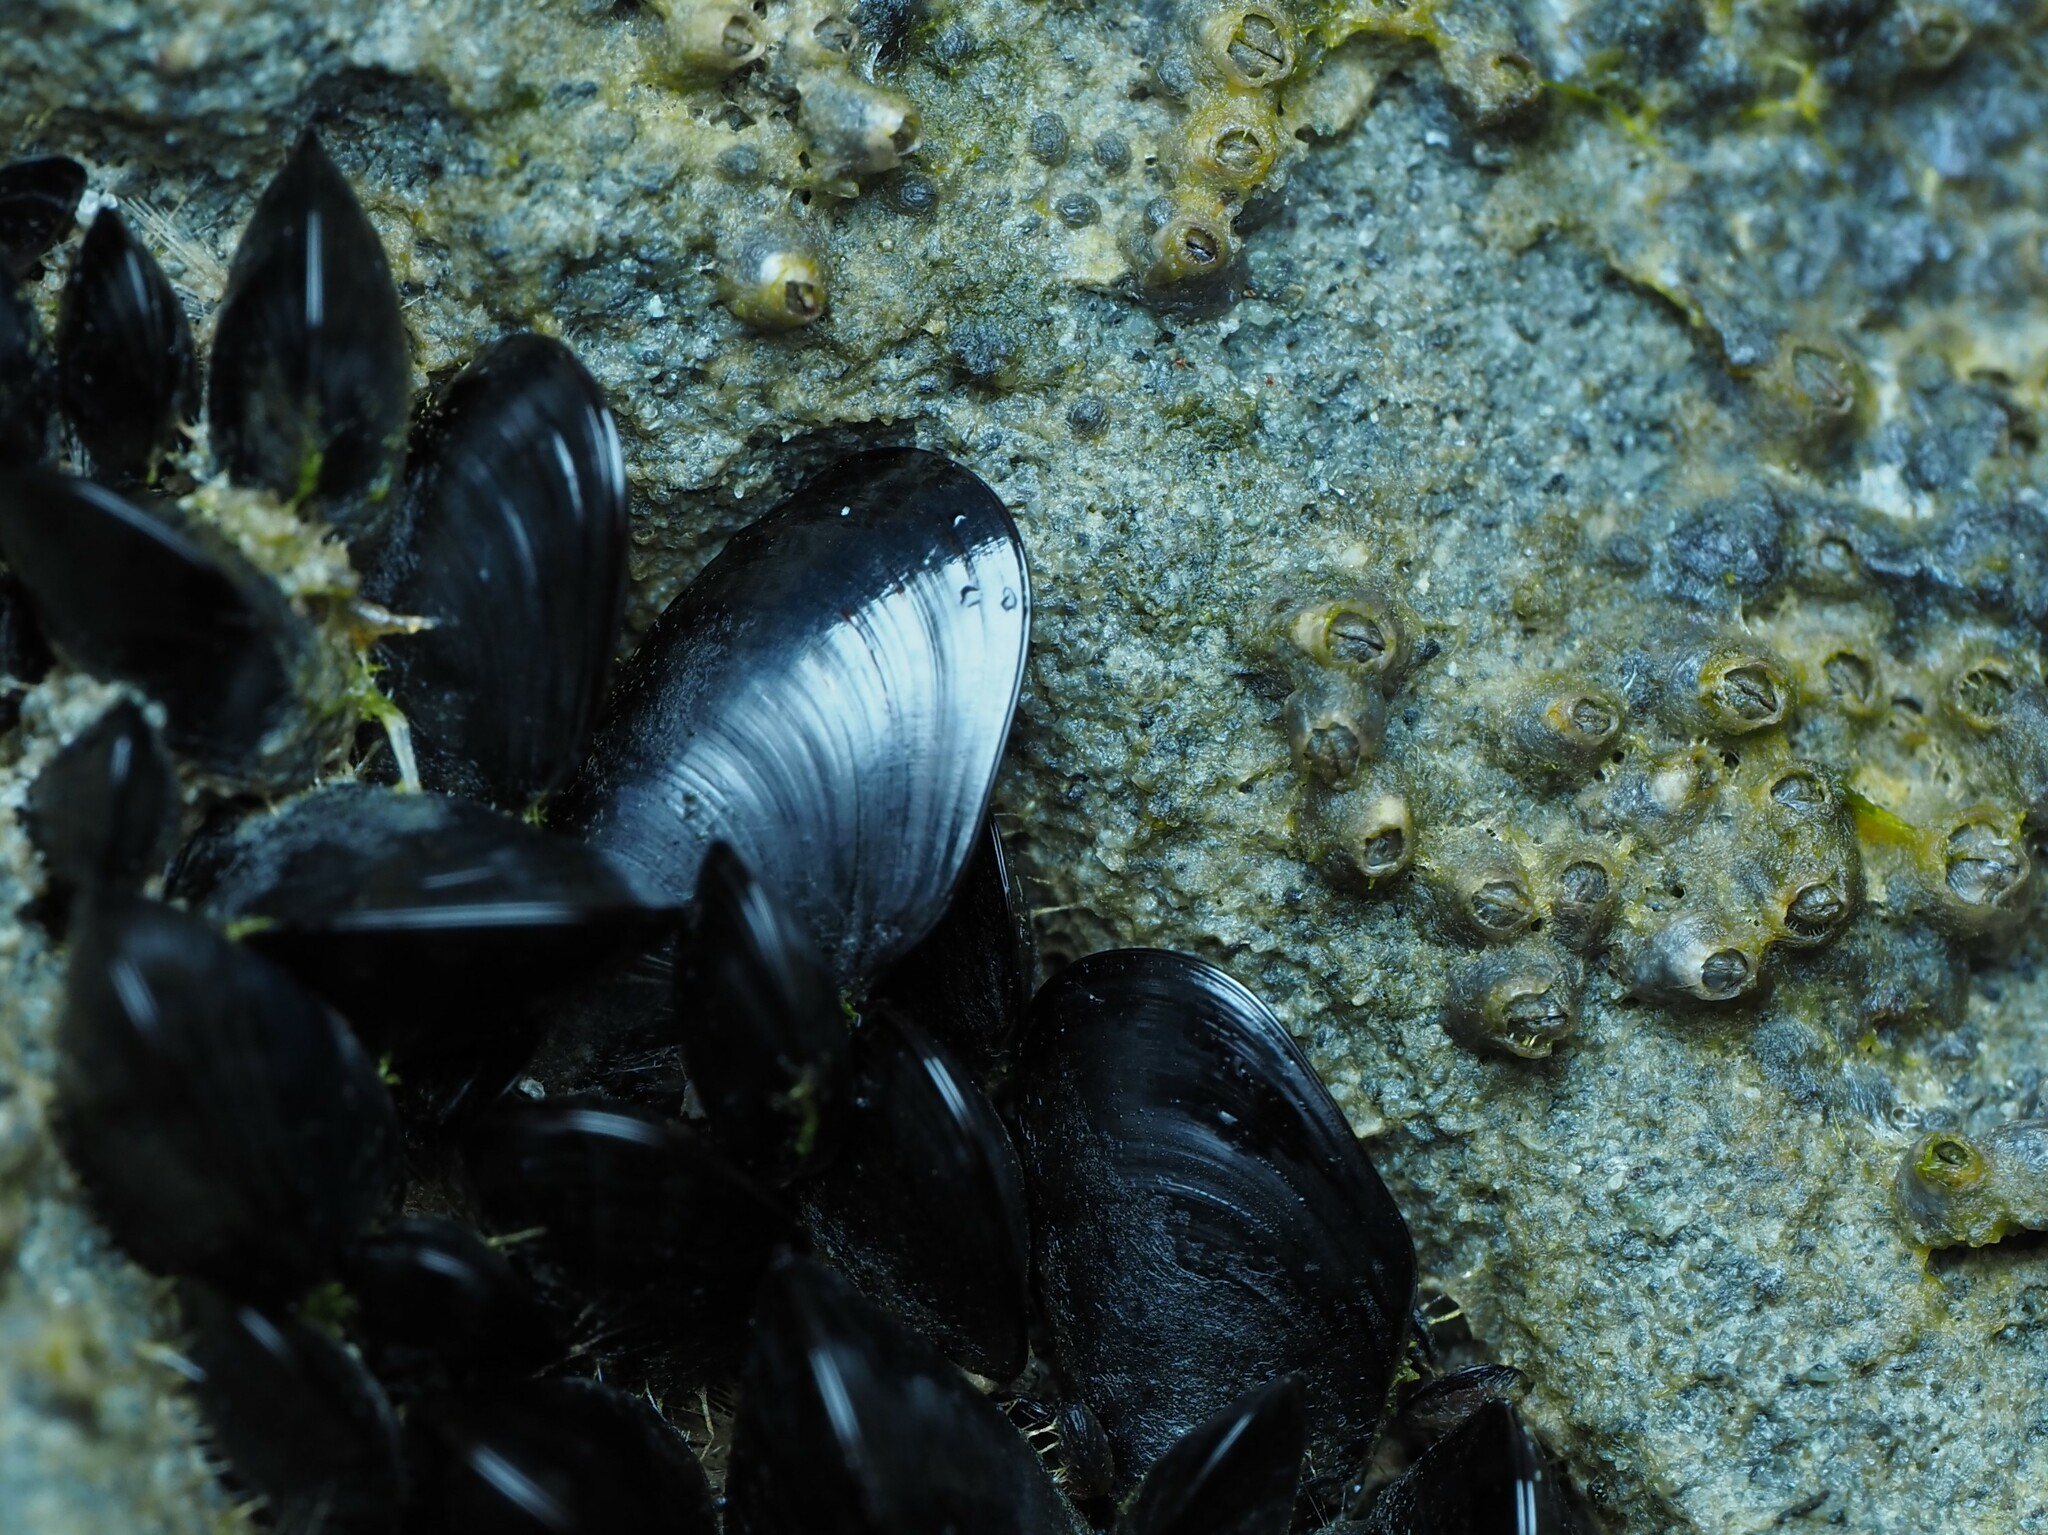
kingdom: Animalia
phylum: Mollusca
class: Bivalvia
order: Mytilida
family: Mytilidae
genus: Xenostrobus
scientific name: Xenostrobus neozelanicus
